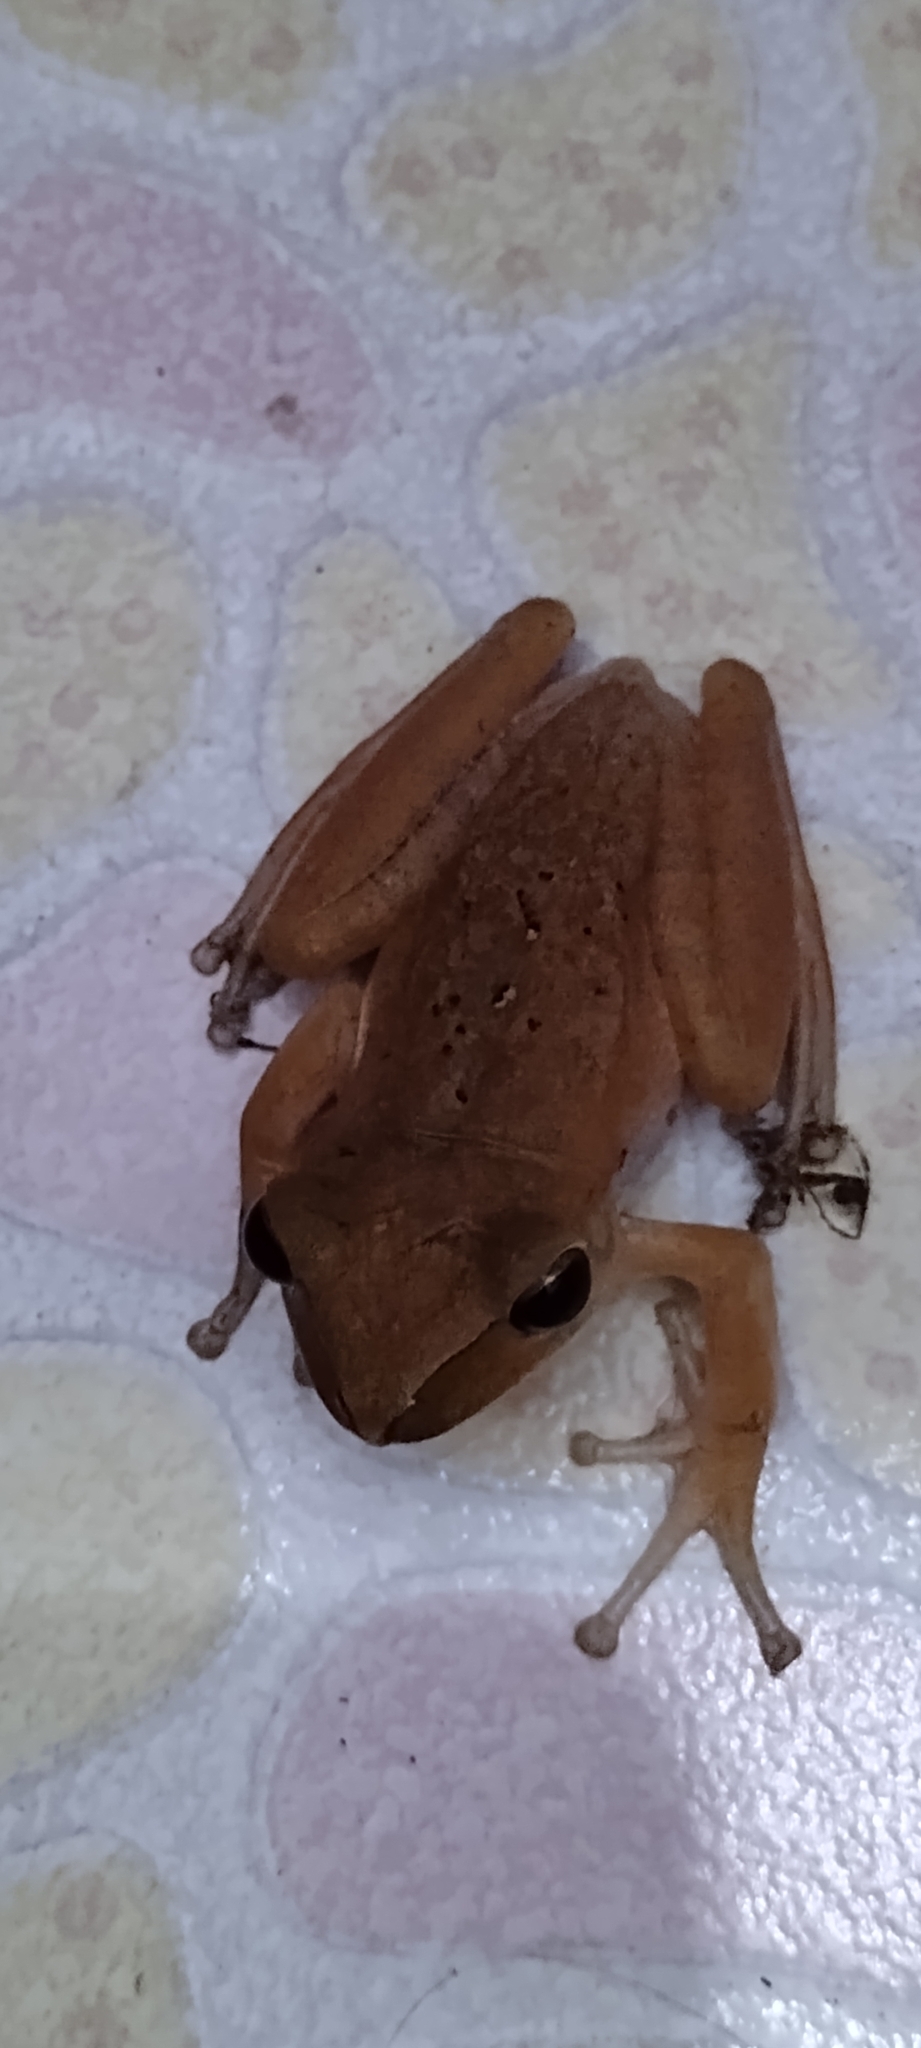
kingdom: Animalia
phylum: Chordata
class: Amphibia
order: Anura
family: Rhacophoridae
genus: Polypedates
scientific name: Polypedates megacephalus
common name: Hong kong whipping frog
